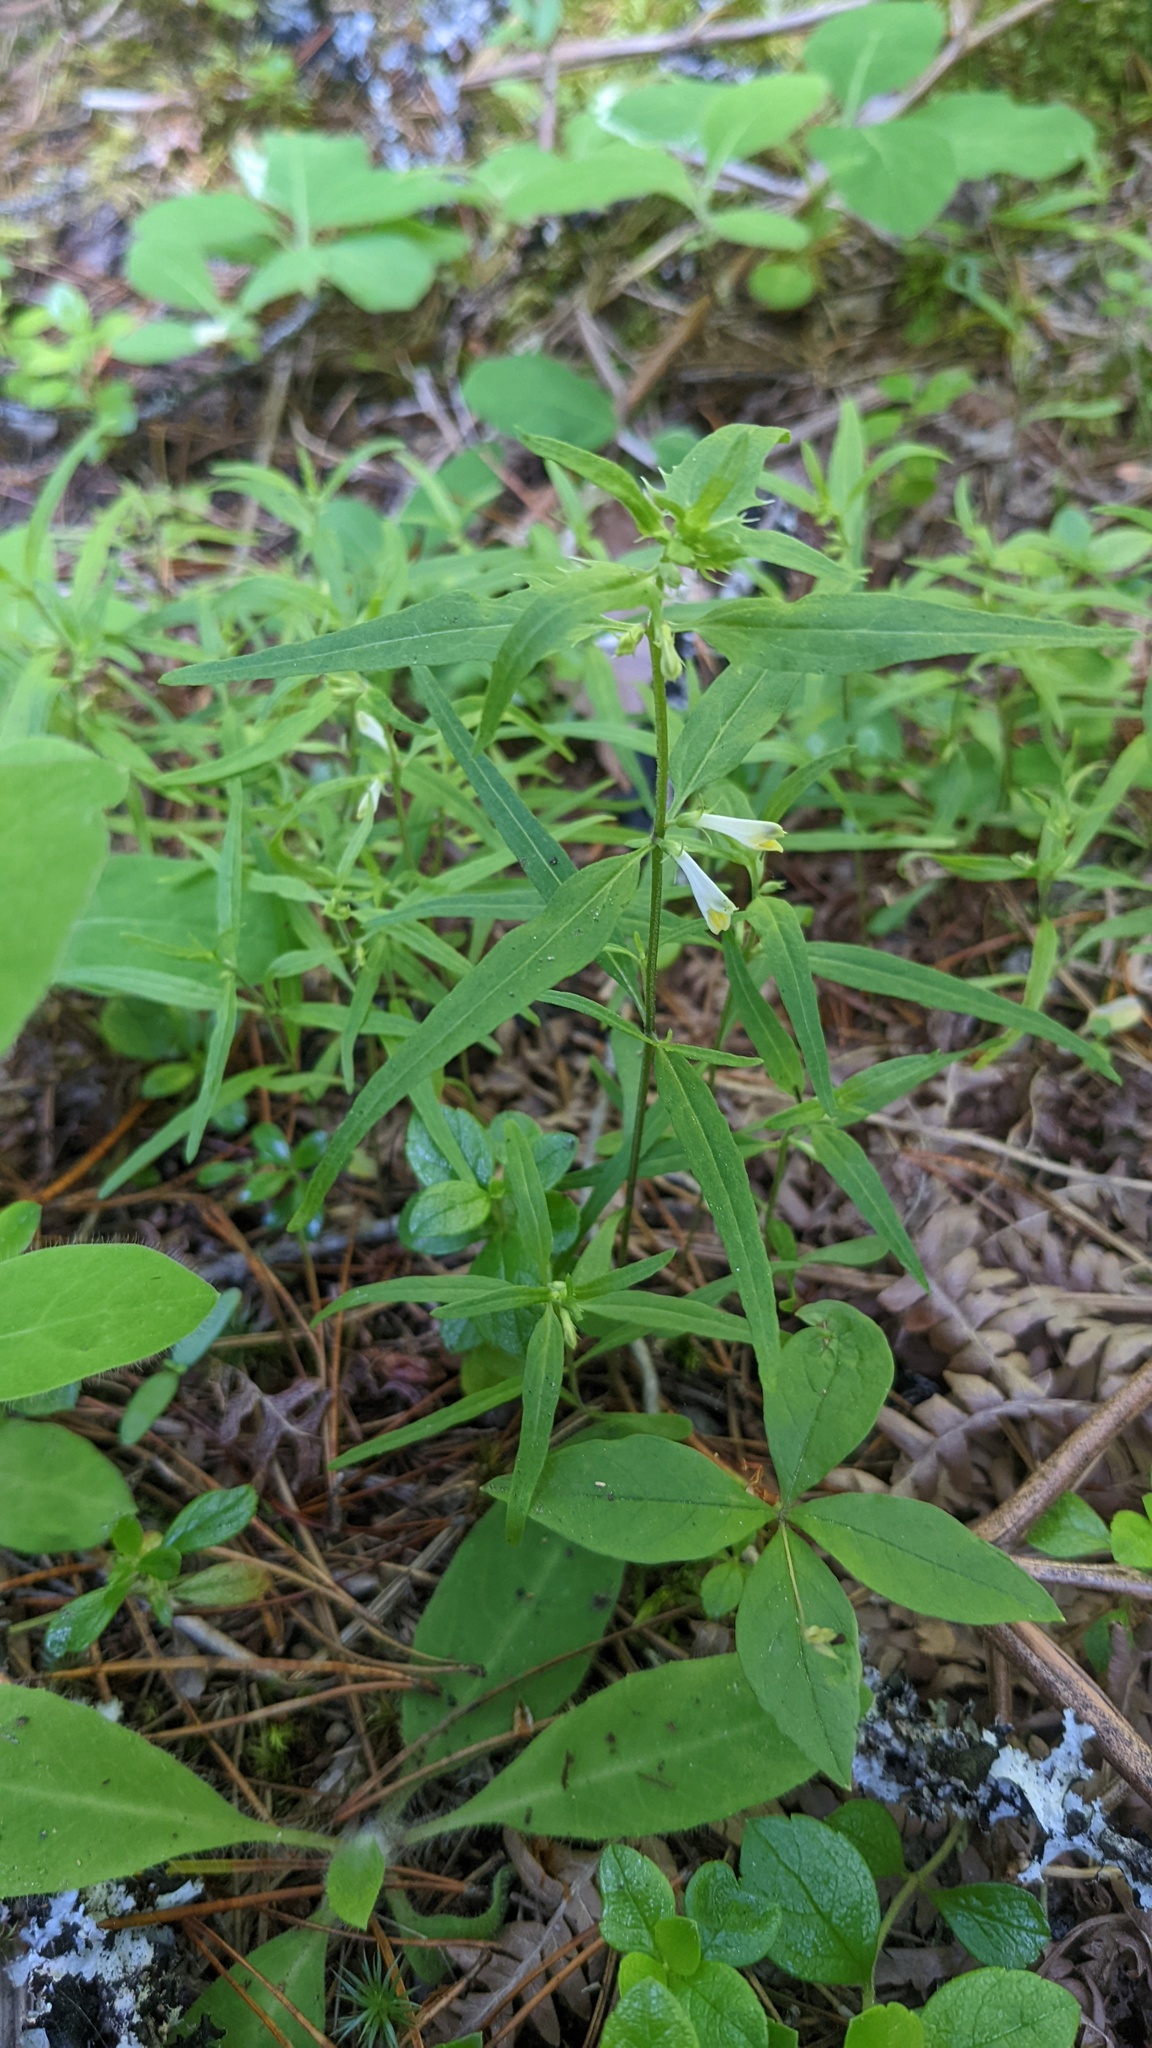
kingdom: Plantae
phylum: Tracheophyta
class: Magnoliopsida
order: Lamiales
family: Orobanchaceae
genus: Melampyrum
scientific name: Melampyrum lineare
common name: American cow-wheat
